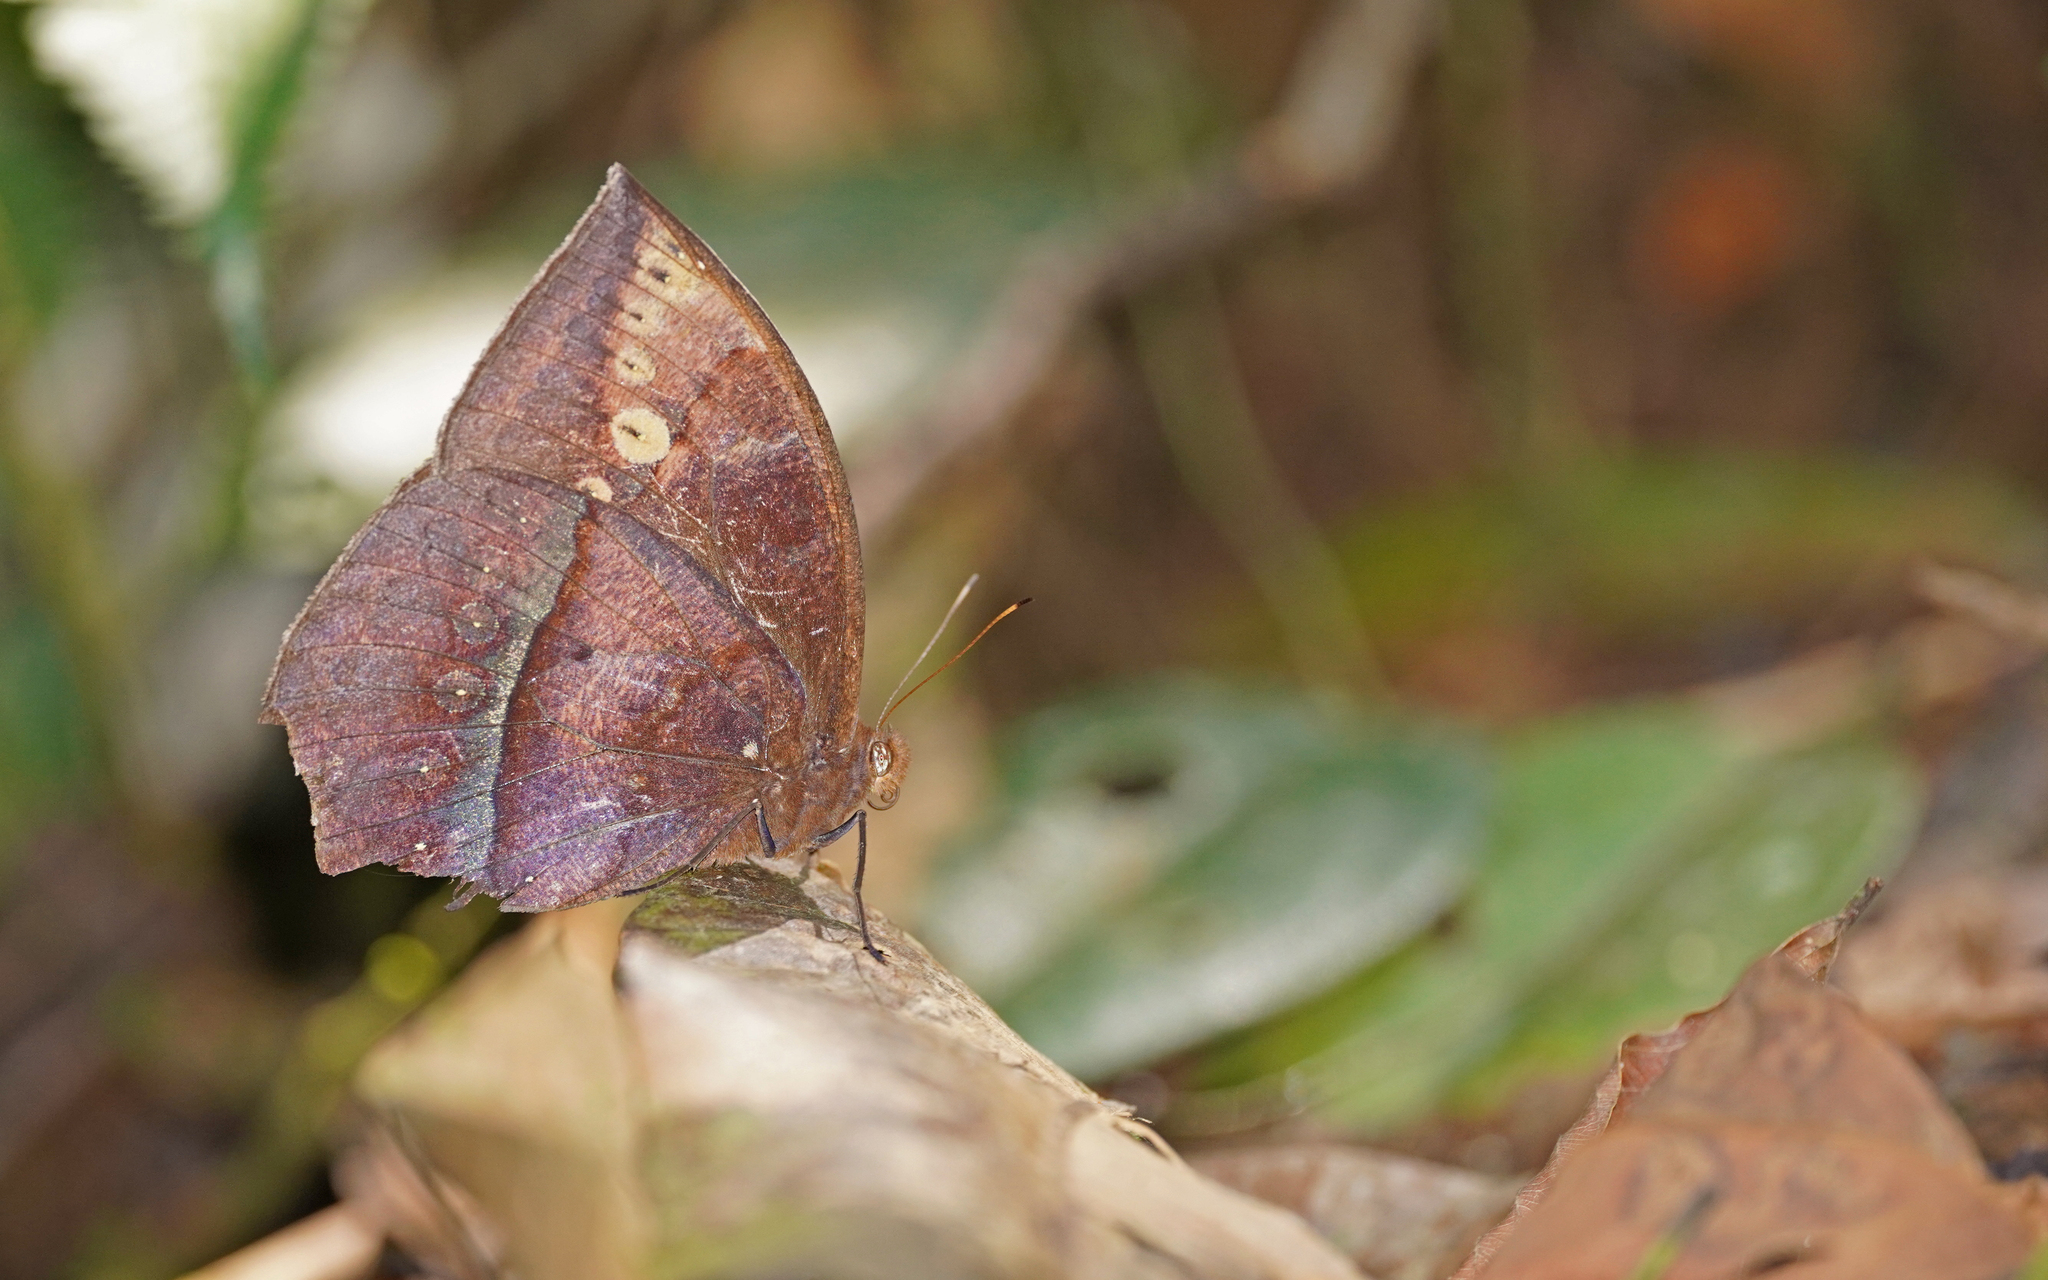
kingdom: Animalia
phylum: Arthropoda
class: Insecta
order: Lepidoptera
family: Nymphalidae
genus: Taygetis
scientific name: Taygetis mermeria
